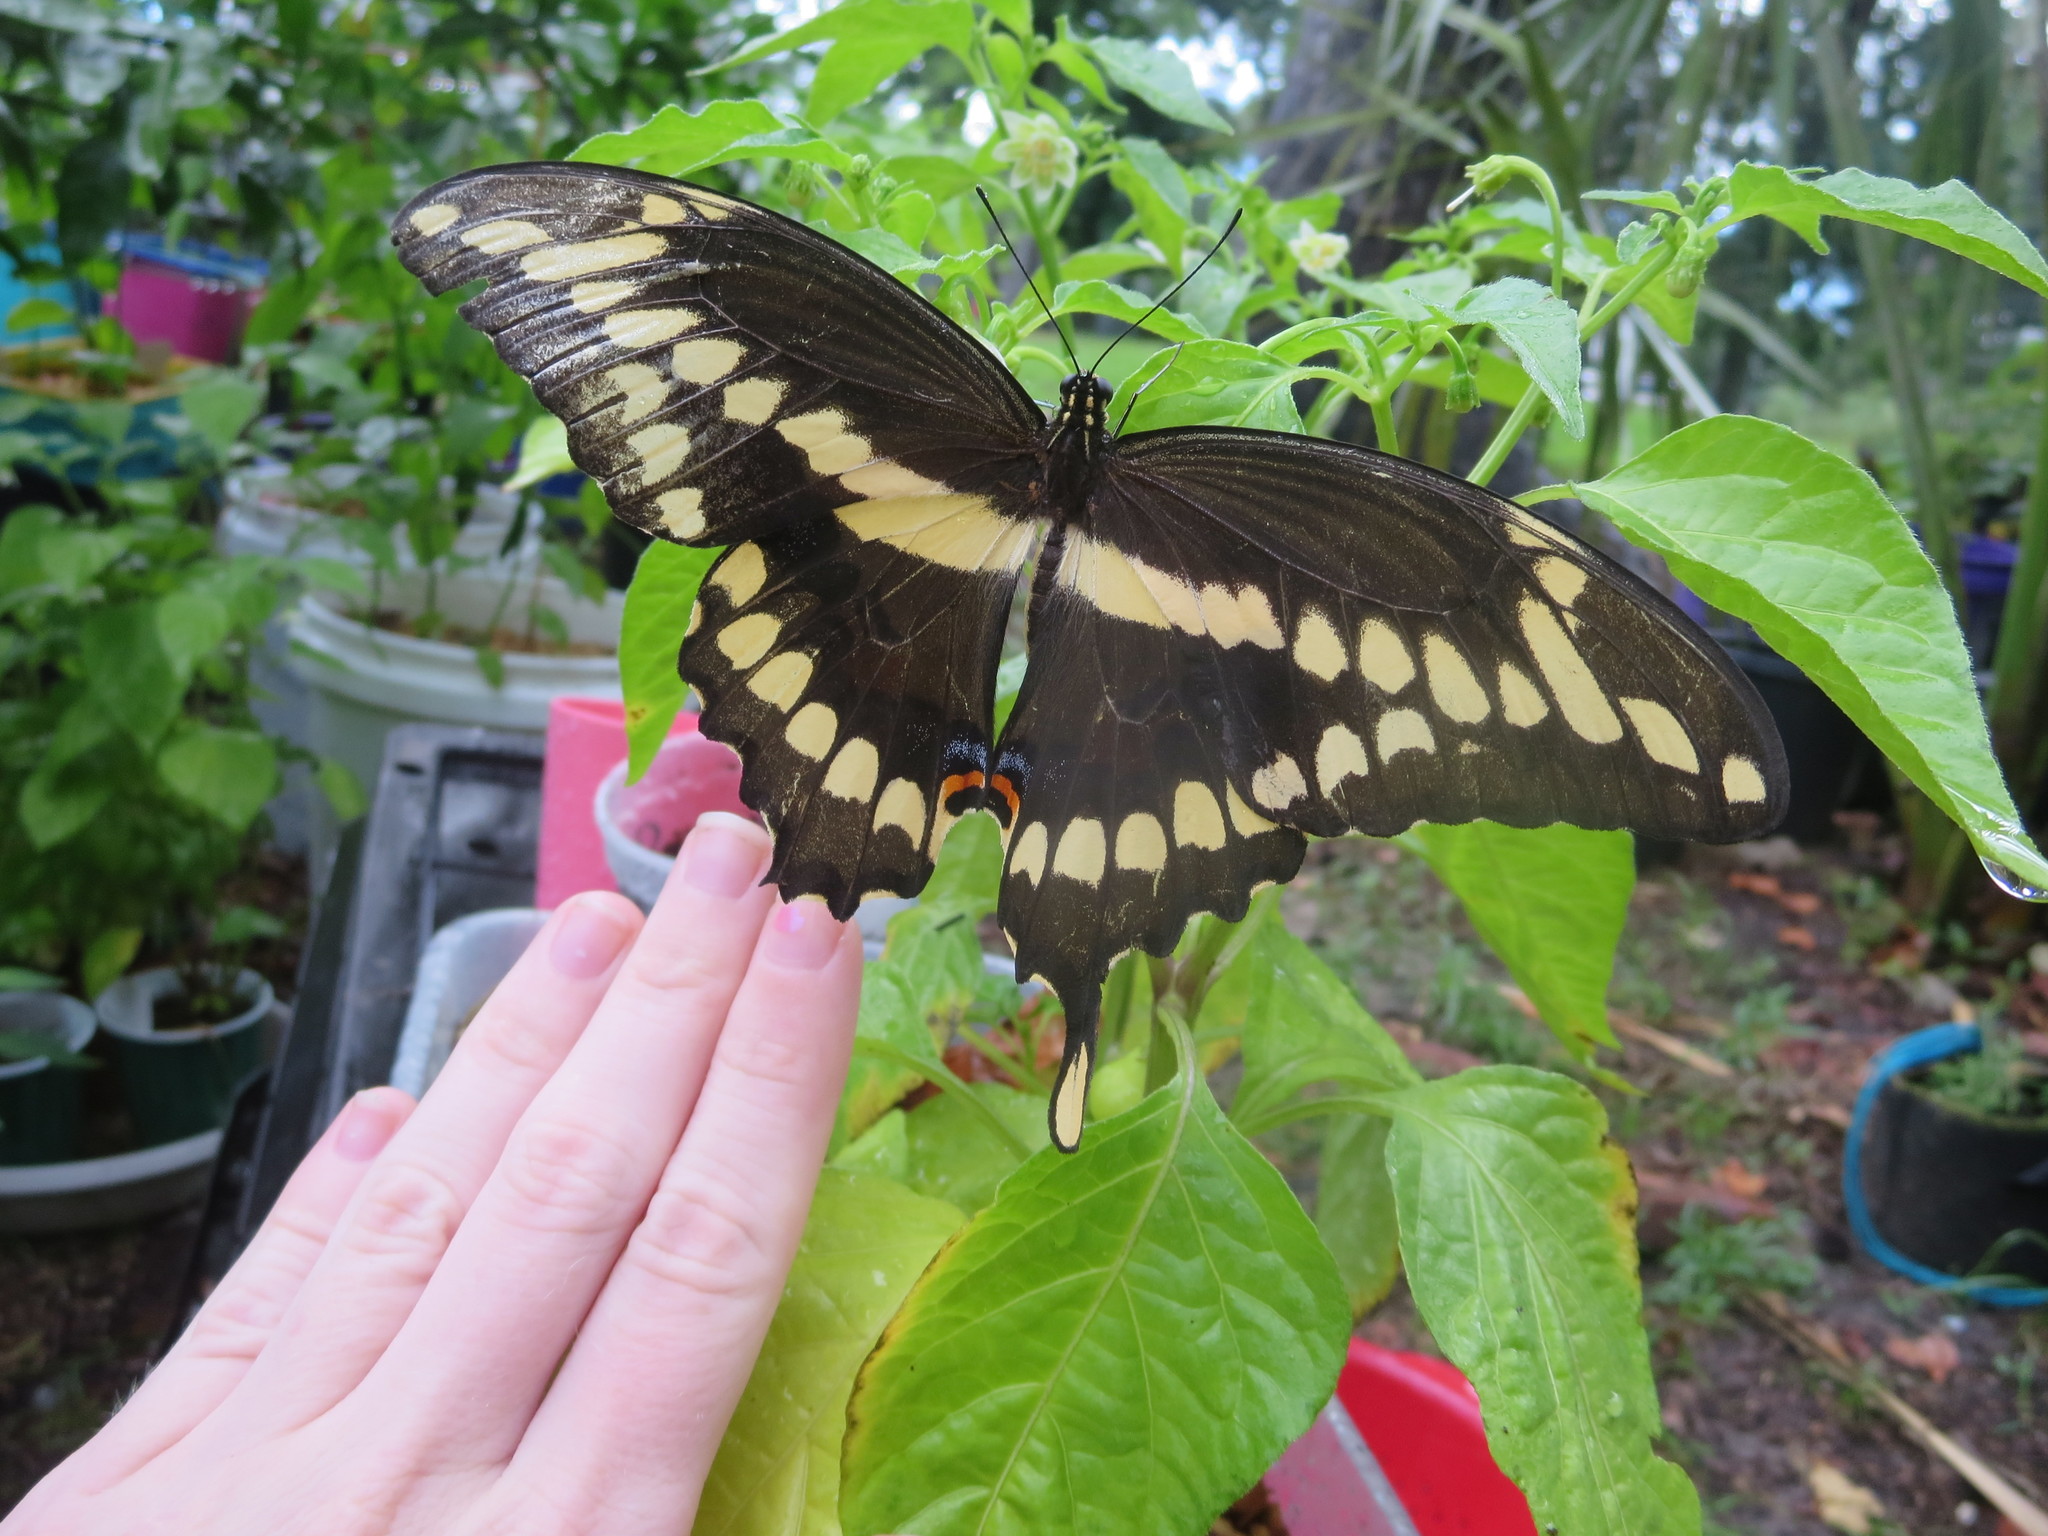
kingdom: Animalia
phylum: Arthropoda
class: Insecta
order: Lepidoptera
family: Papilionidae
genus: Papilio
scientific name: Papilio cresphontes
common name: Giant swallowtail
